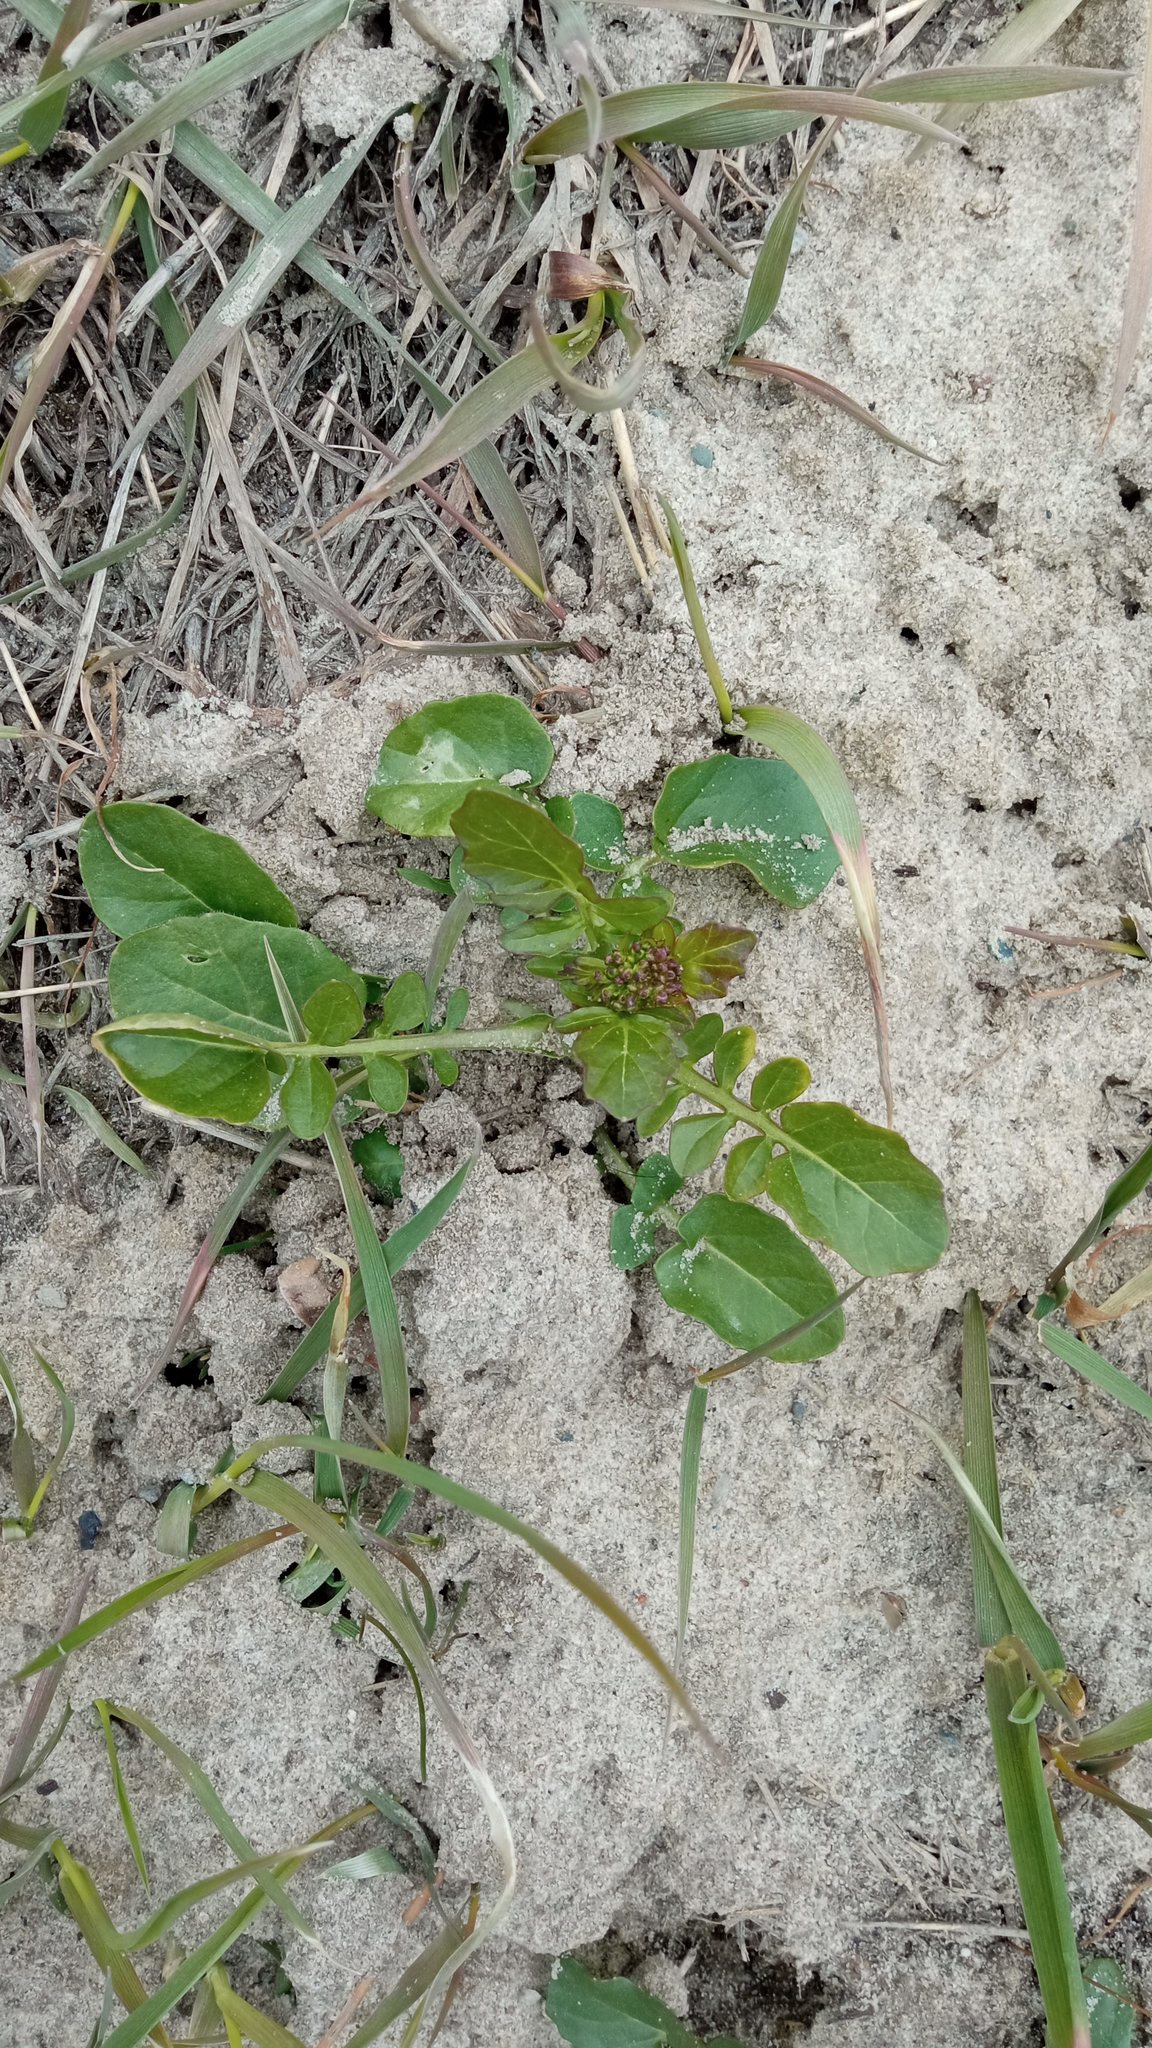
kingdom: Plantae
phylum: Tracheophyta
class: Magnoliopsida
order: Brassicales
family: Brassicaceae
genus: Barbarea
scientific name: Barbarea vulgaris
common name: Cressy-greens
